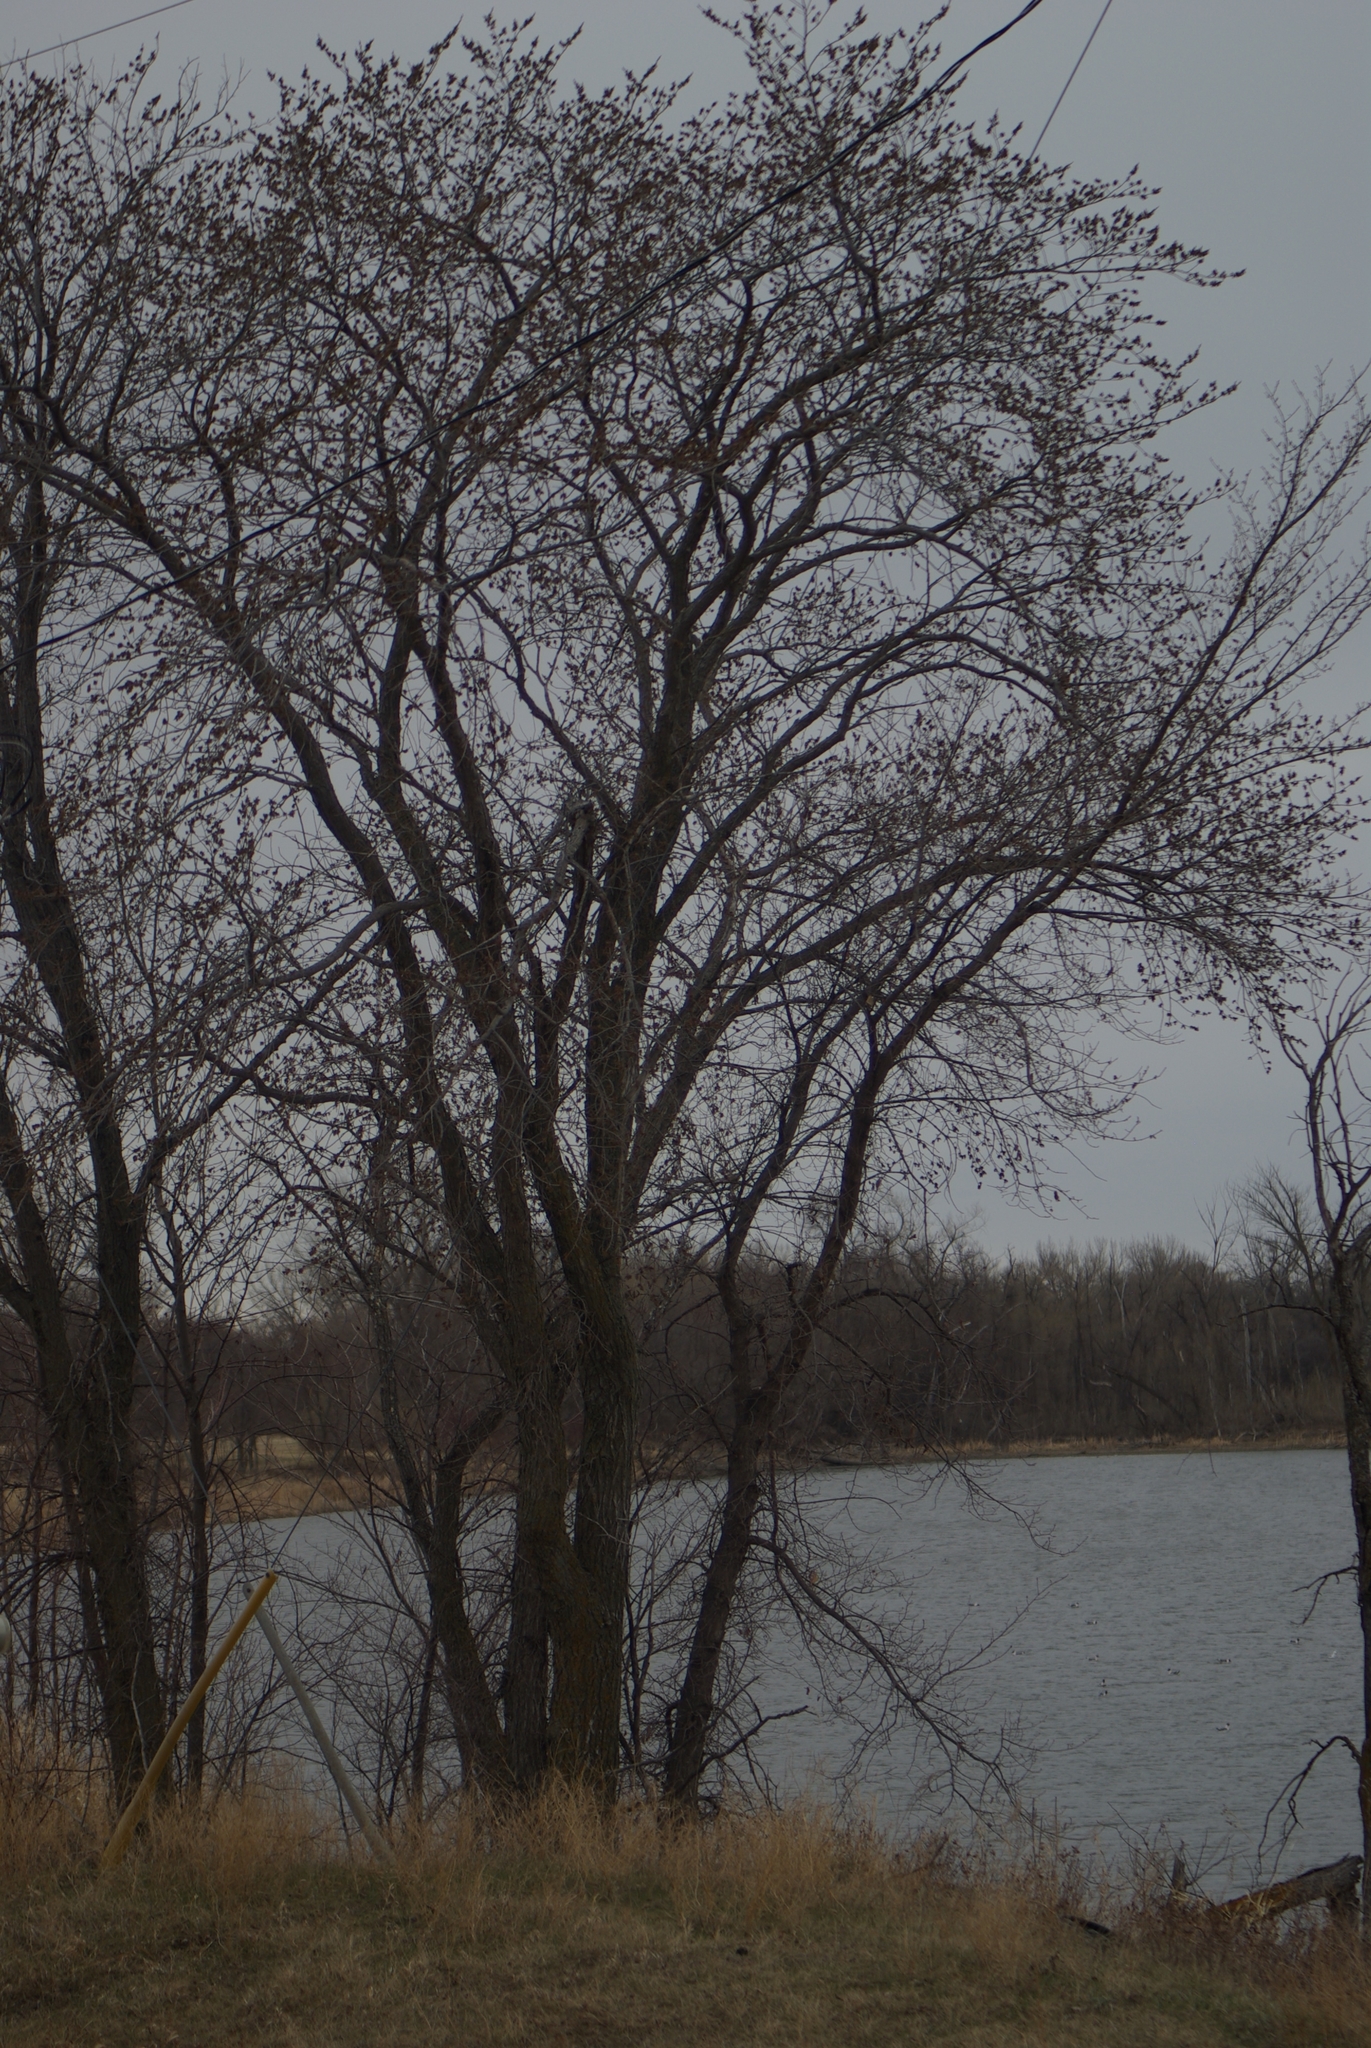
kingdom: Plantae
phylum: Tracheophyta
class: Magnoliopsida
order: Malpighiales
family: Salicaceae
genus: Populus
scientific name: Populus deltoides
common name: Eastern cottonwood
